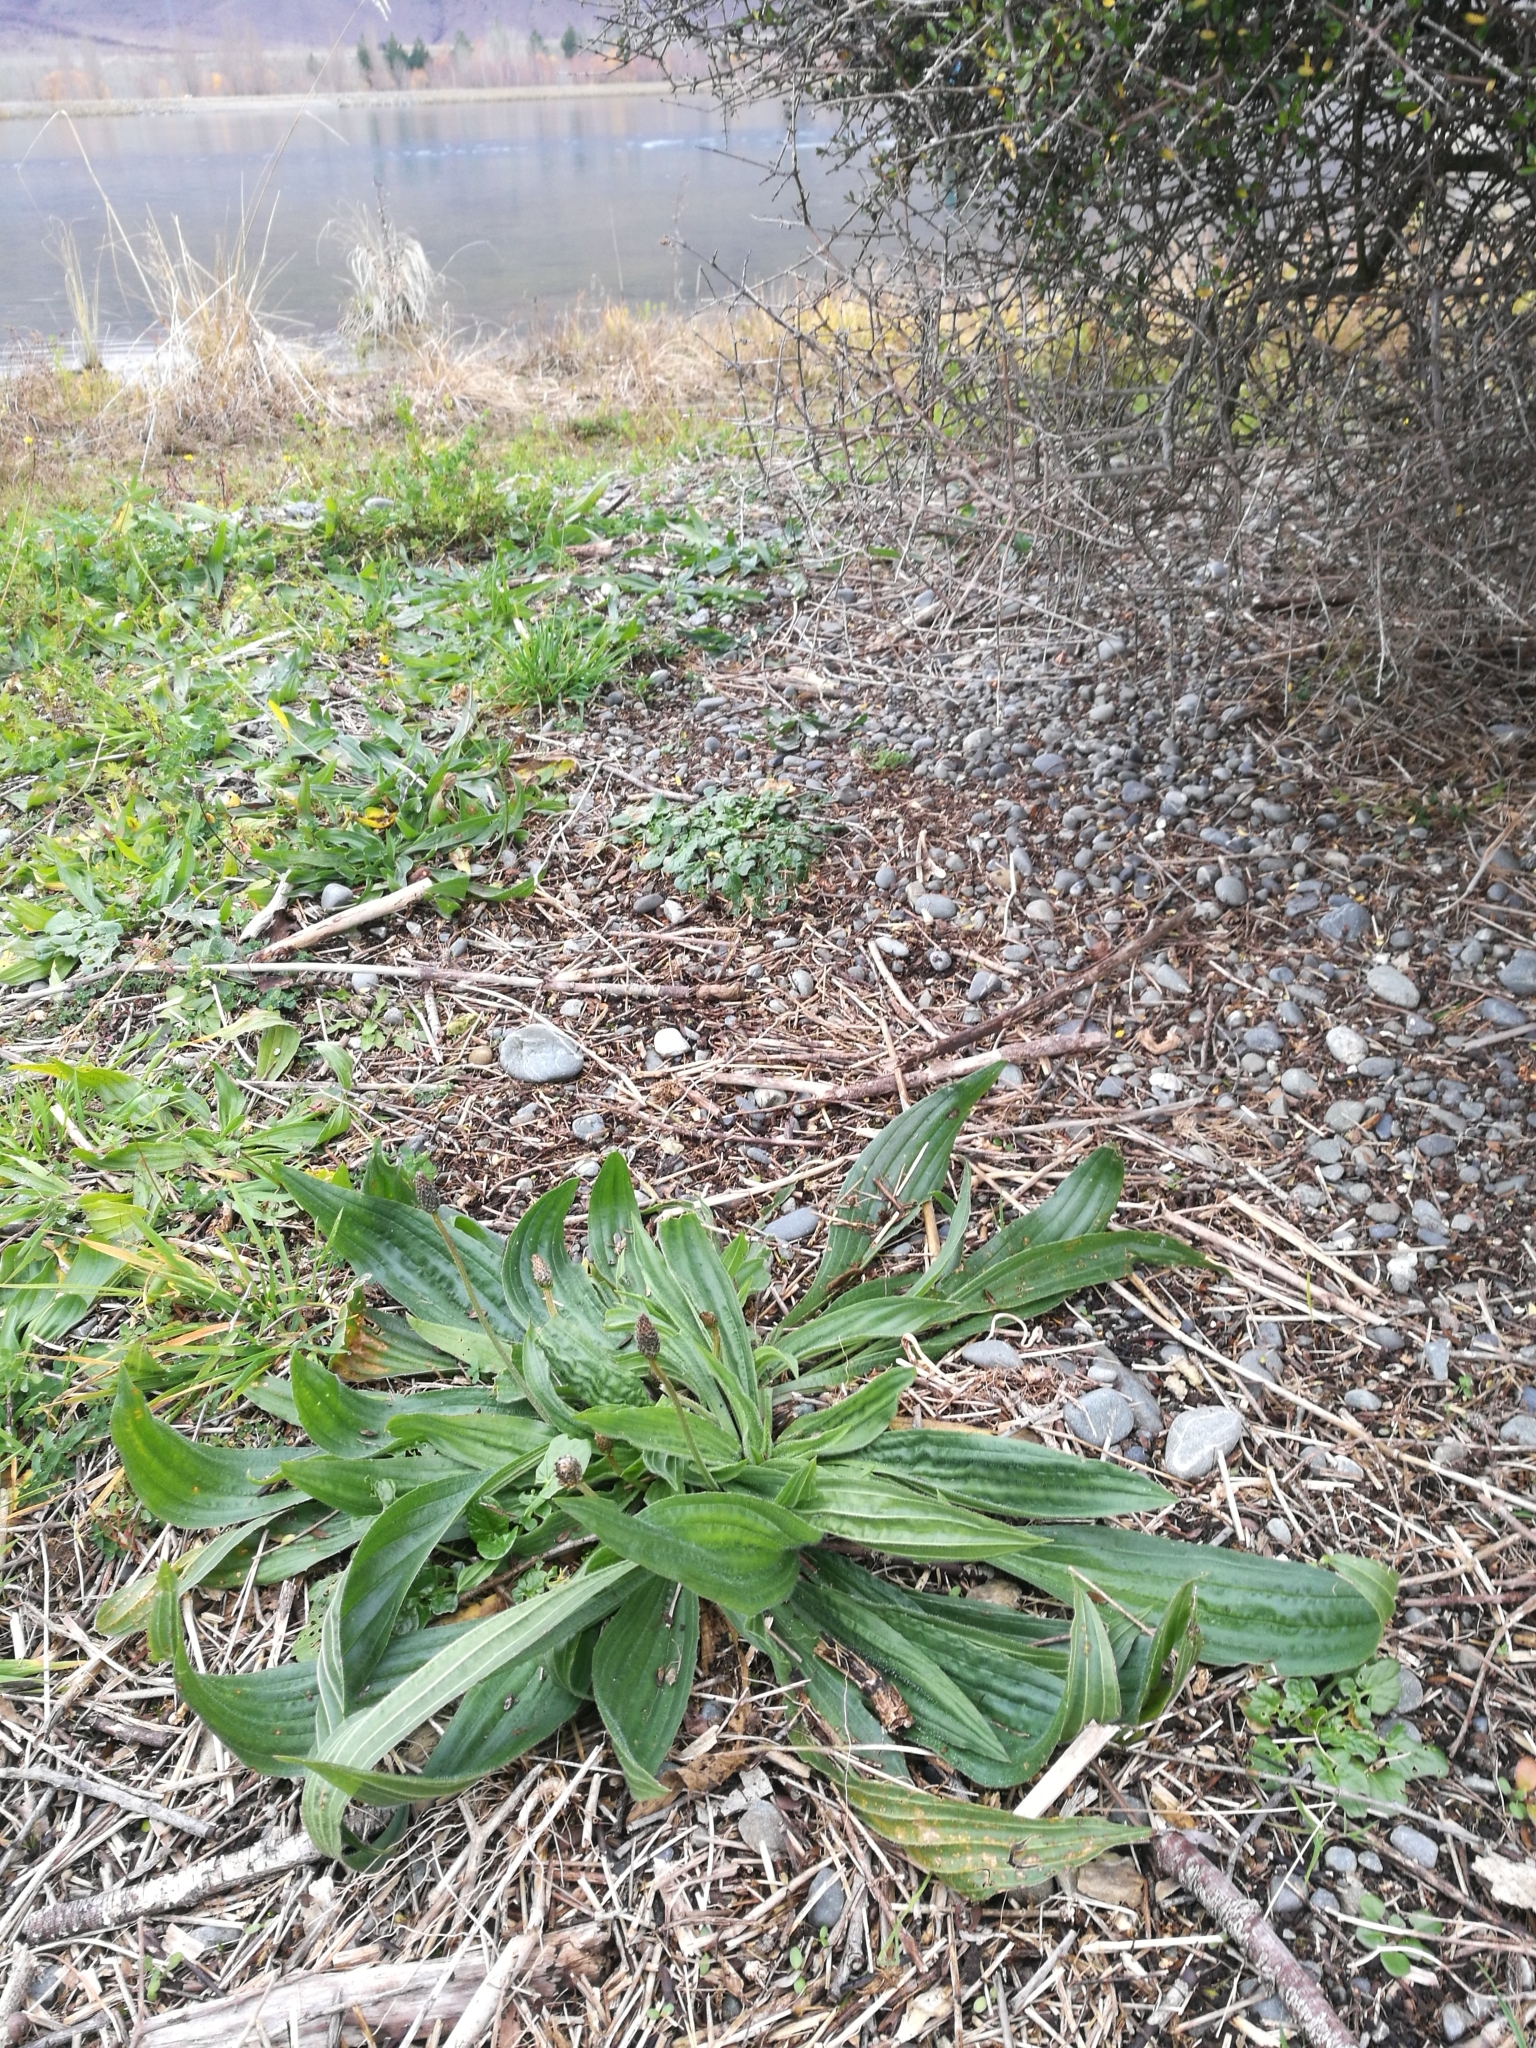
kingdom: Plantae
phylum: Tracheophyta
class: Magnoliopsida
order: Lamiales
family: Plantaginaceae
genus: Plantago
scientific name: Plantago lanceolata
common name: Ribwort plantain
